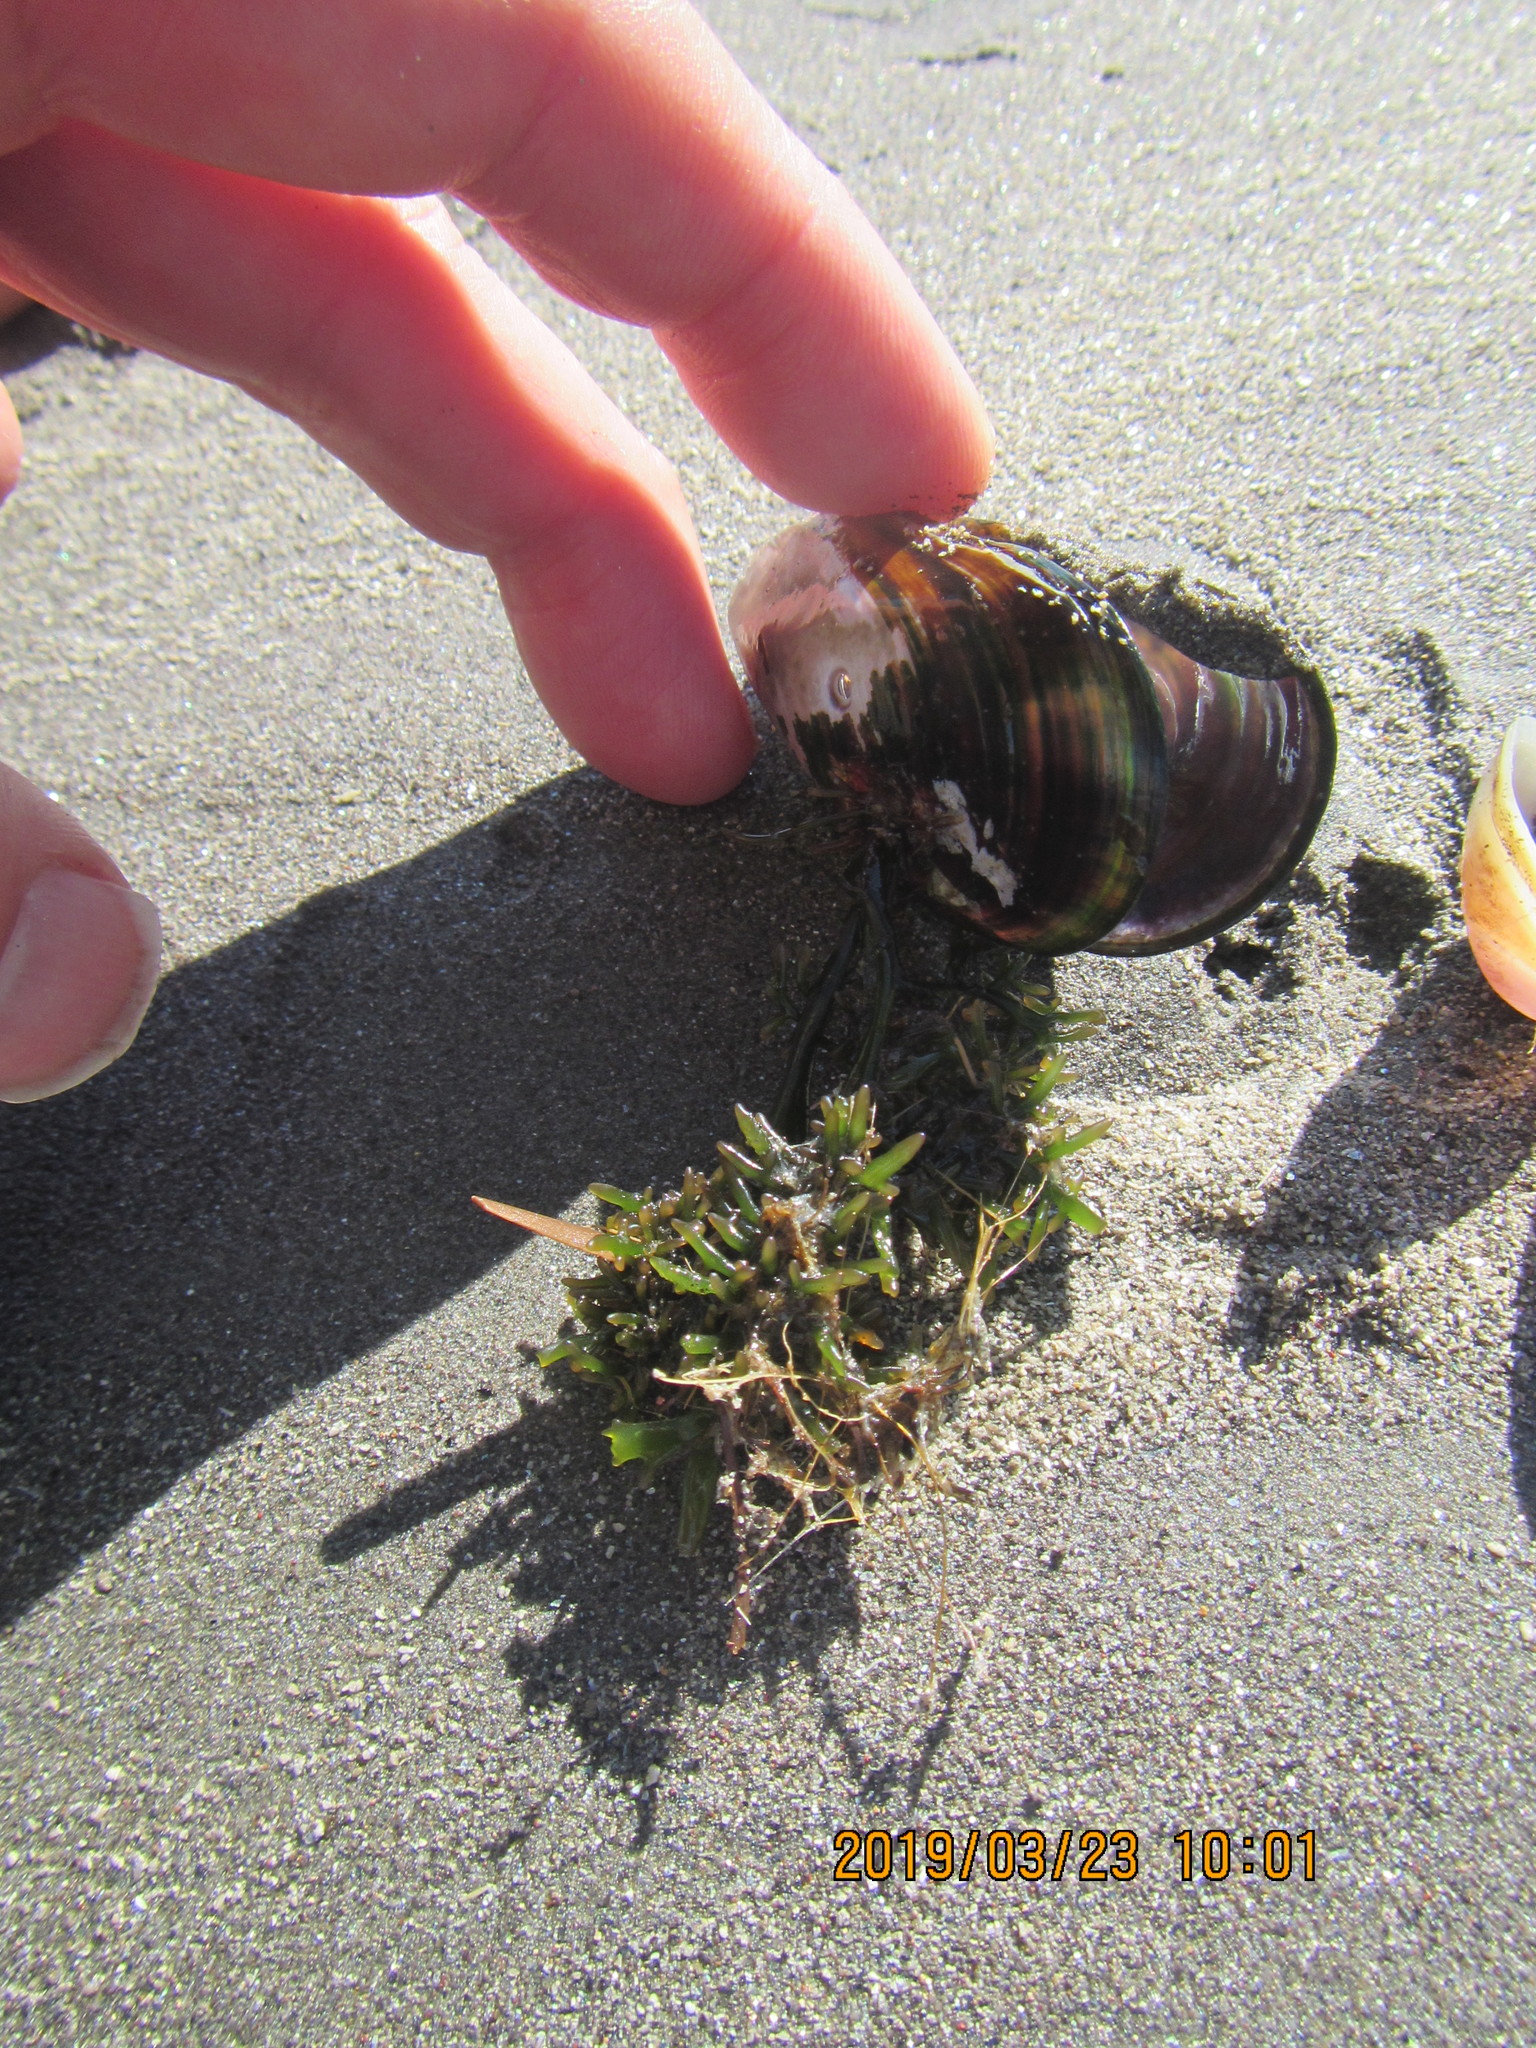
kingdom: Animalia
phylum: Mollusca
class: Bivalvia
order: Mytilida
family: Mytilidae
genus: Perna
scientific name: Perna canaliculus
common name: New zealand greenshelltm
